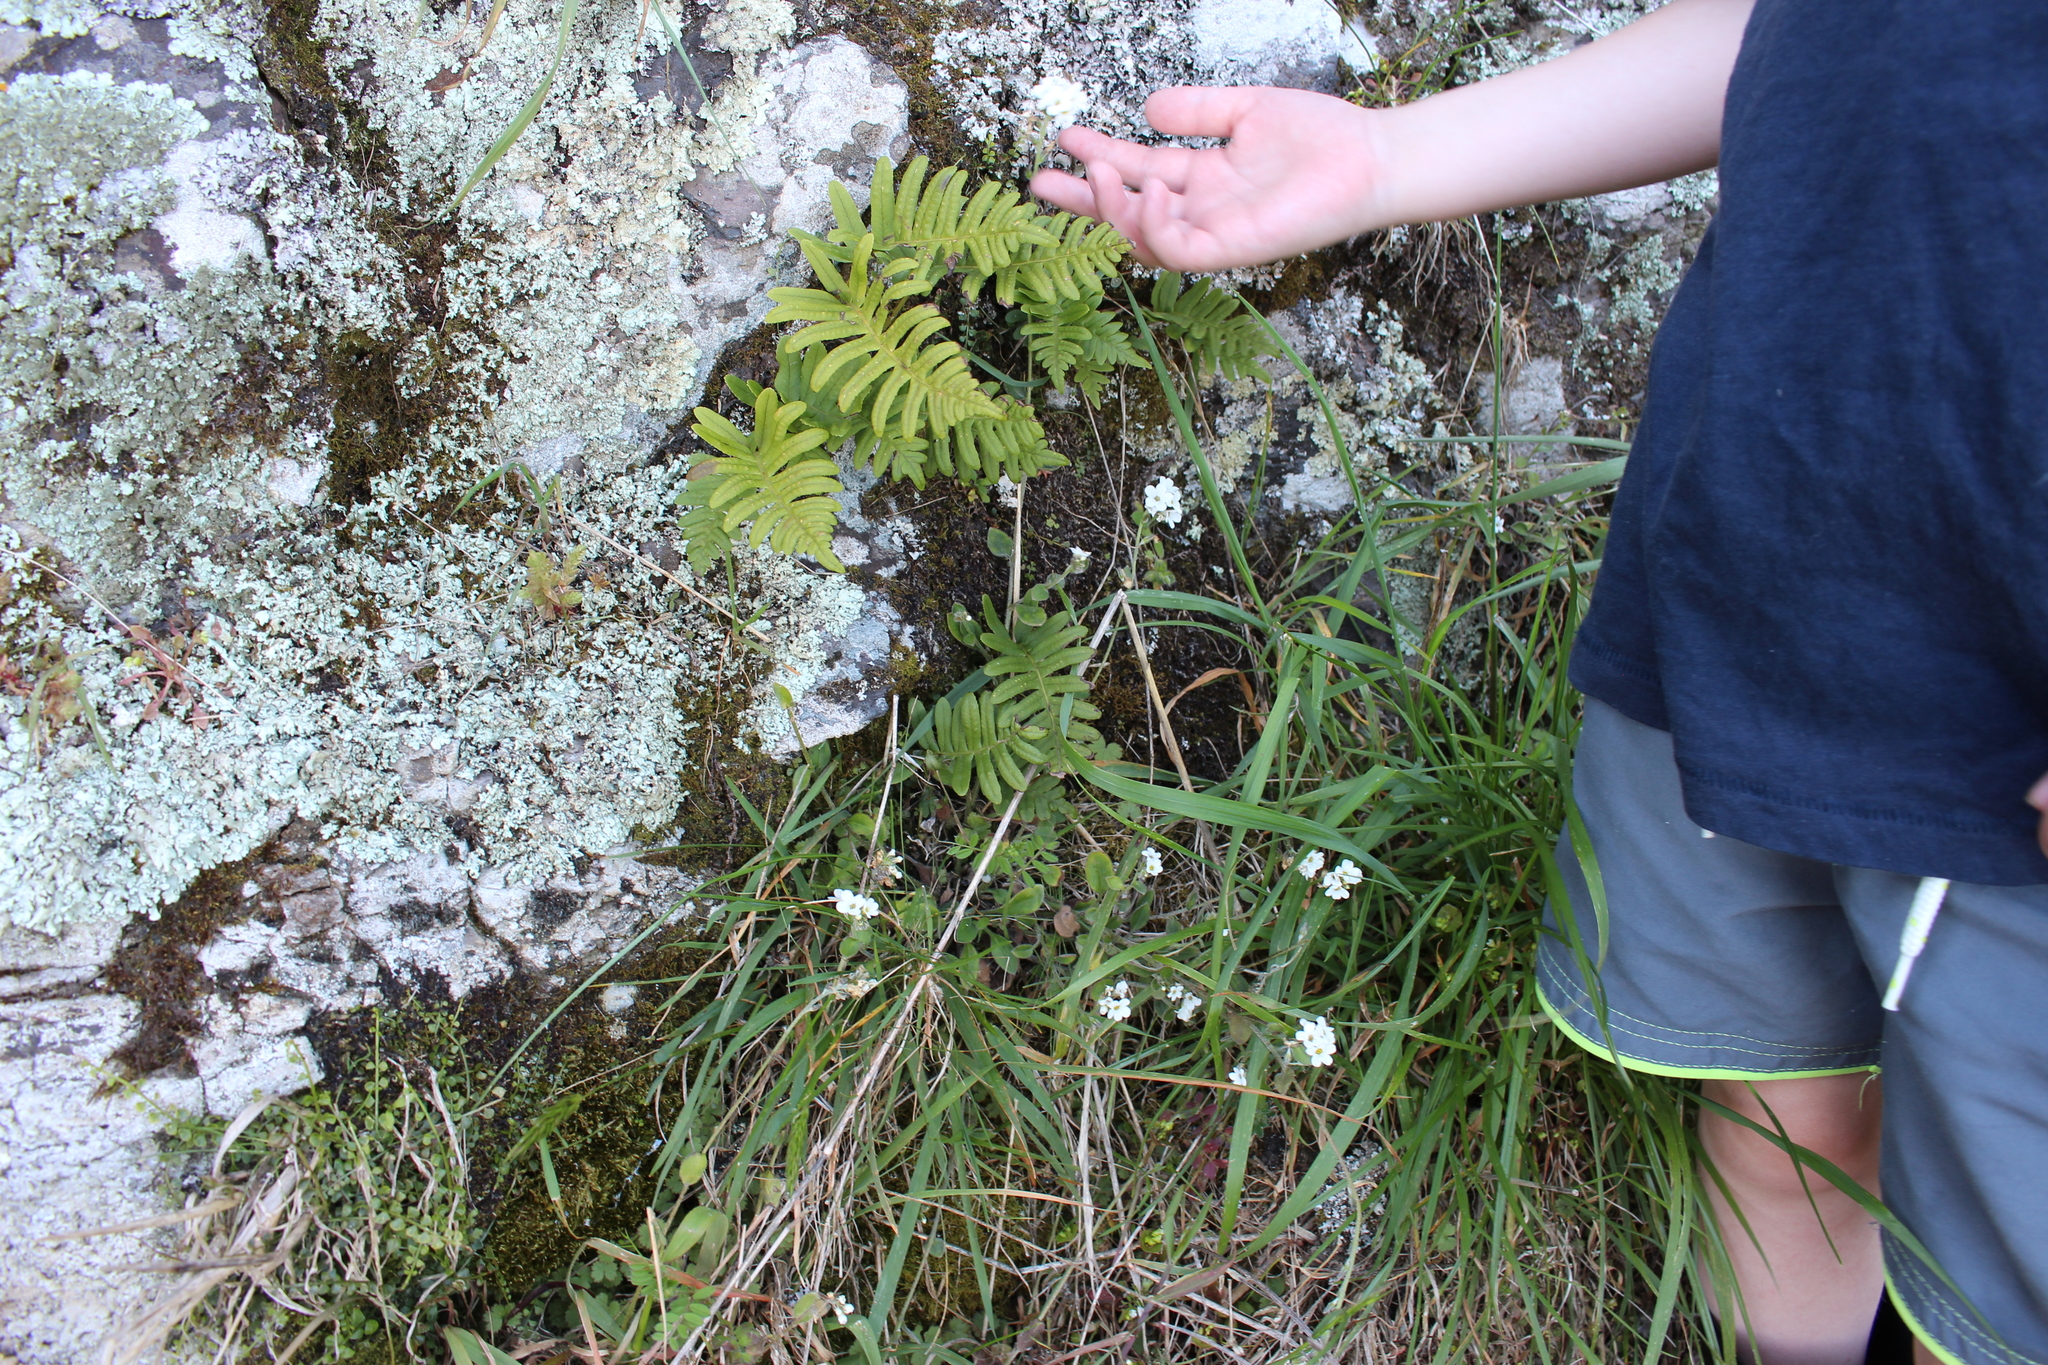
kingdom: Plantae
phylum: Tracheophyta
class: Magnoliopsida
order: Boraginales
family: Boraginaceae
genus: Myosotis
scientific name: Myosotis australis
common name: Australian forget-me-not
